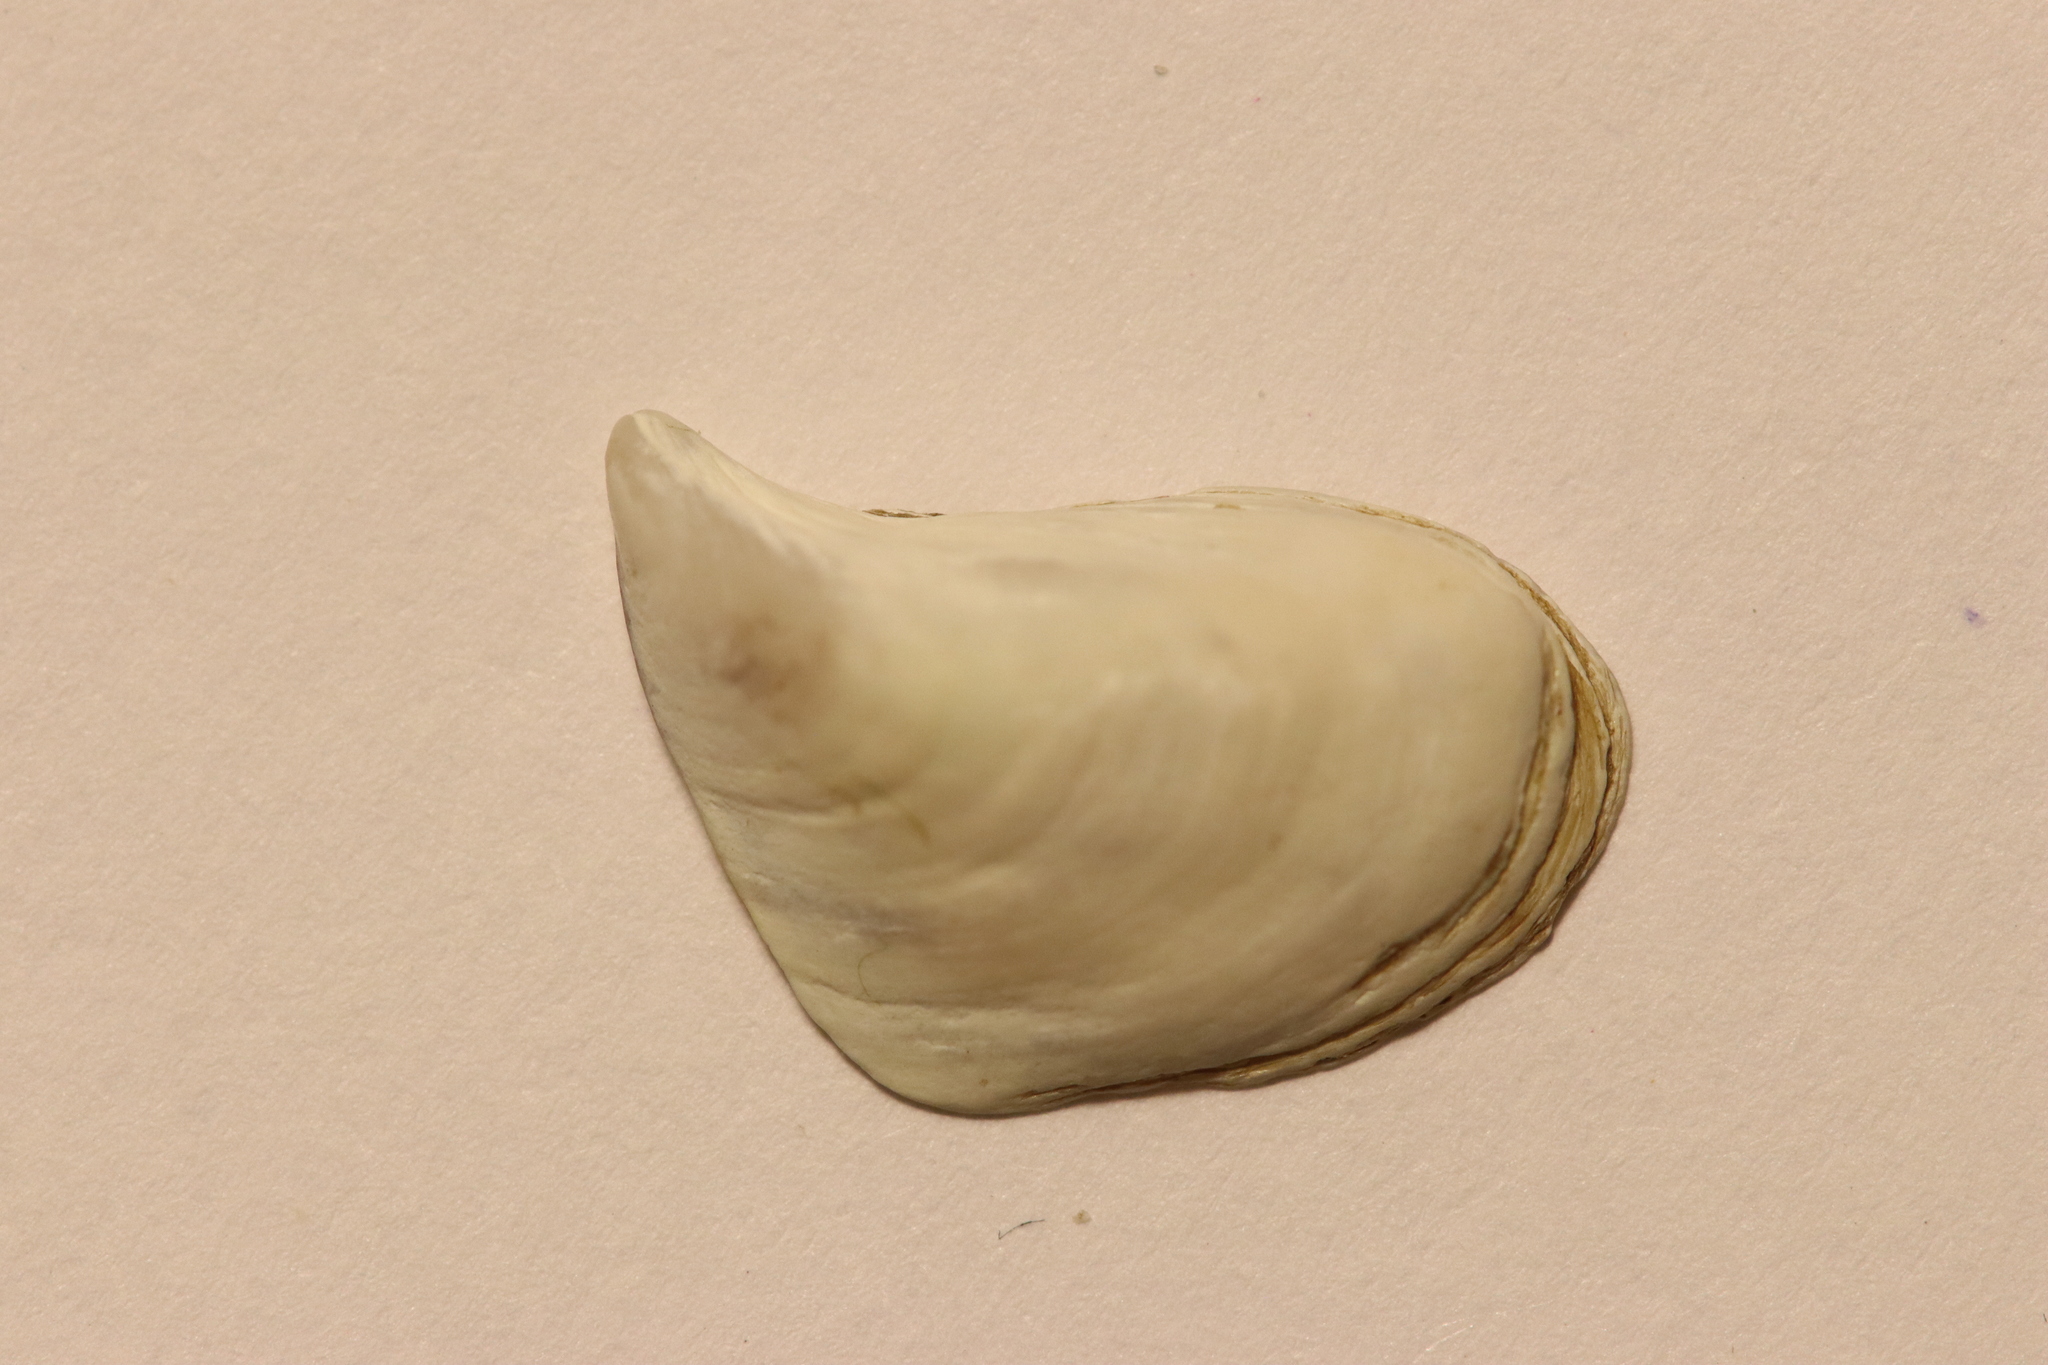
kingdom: Animalia
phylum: Mollusca
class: Bivalvia
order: Myida
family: Dreissenidae
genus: Dreissena
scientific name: Dreissena bugensis
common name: Quagga mussel
